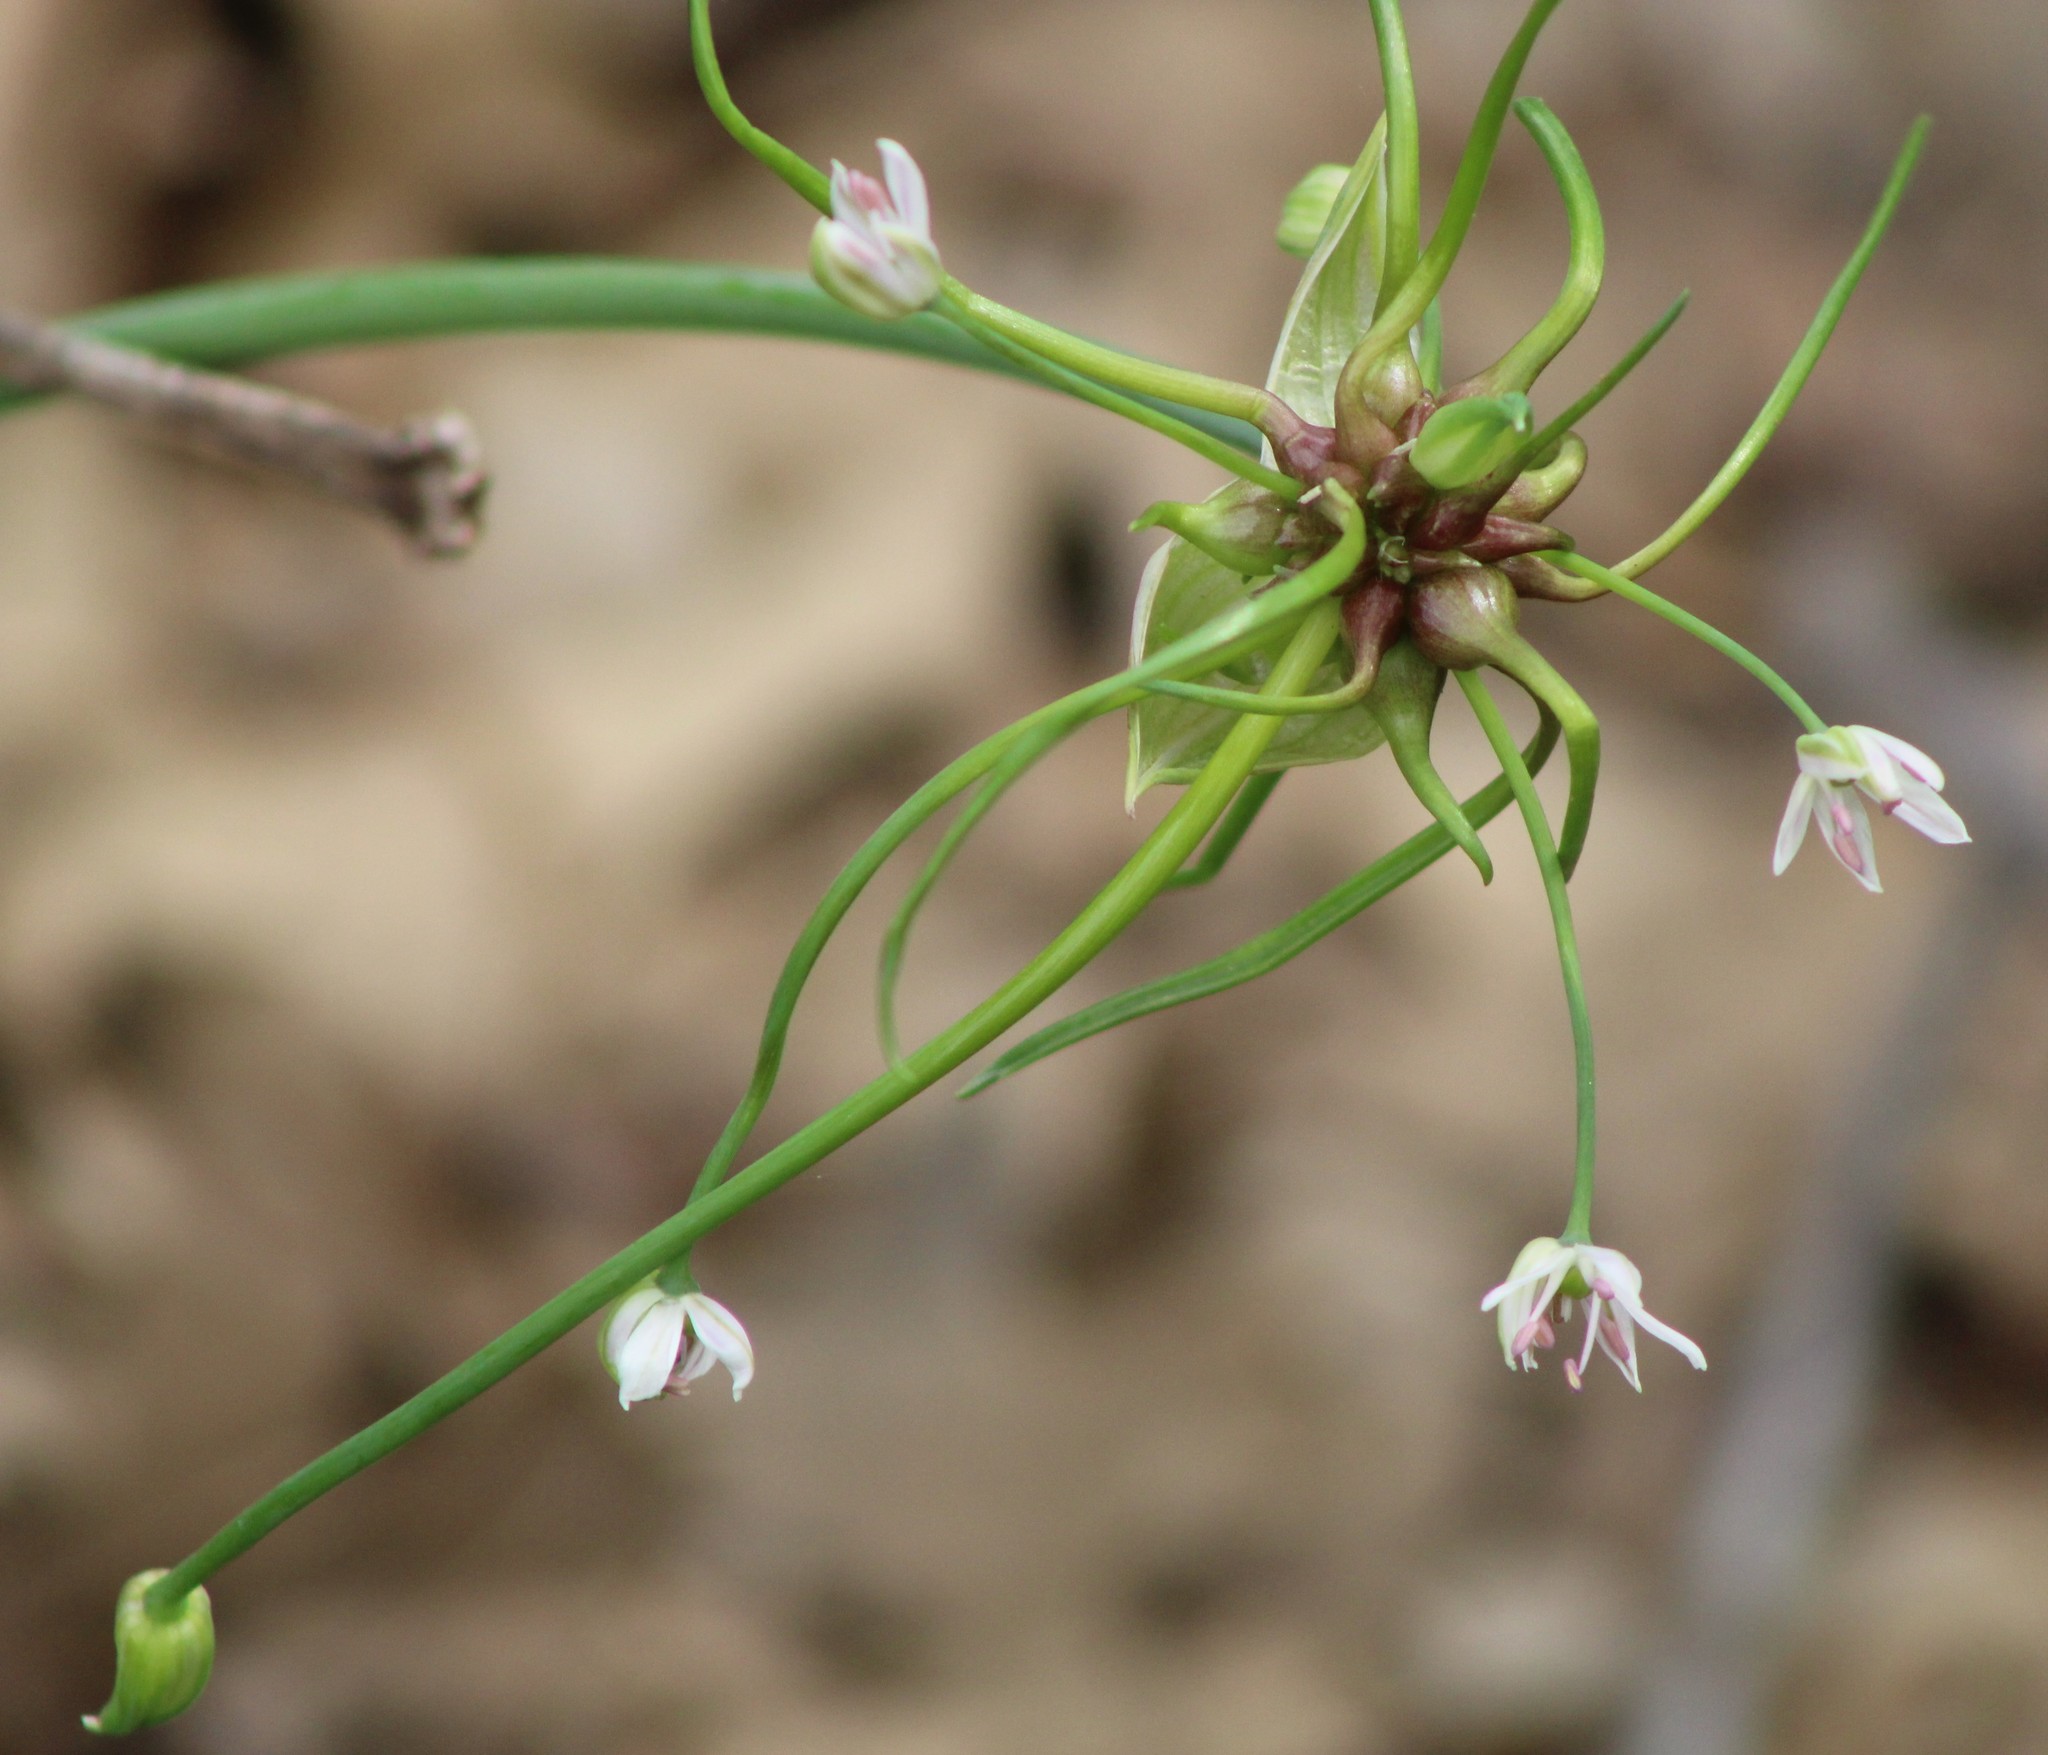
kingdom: Plantae
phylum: Tracheophyta
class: Liliopsida
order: Asparagales
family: Amaryllidaceae
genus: Allium
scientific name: Allium canadense
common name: Meadow garlic
